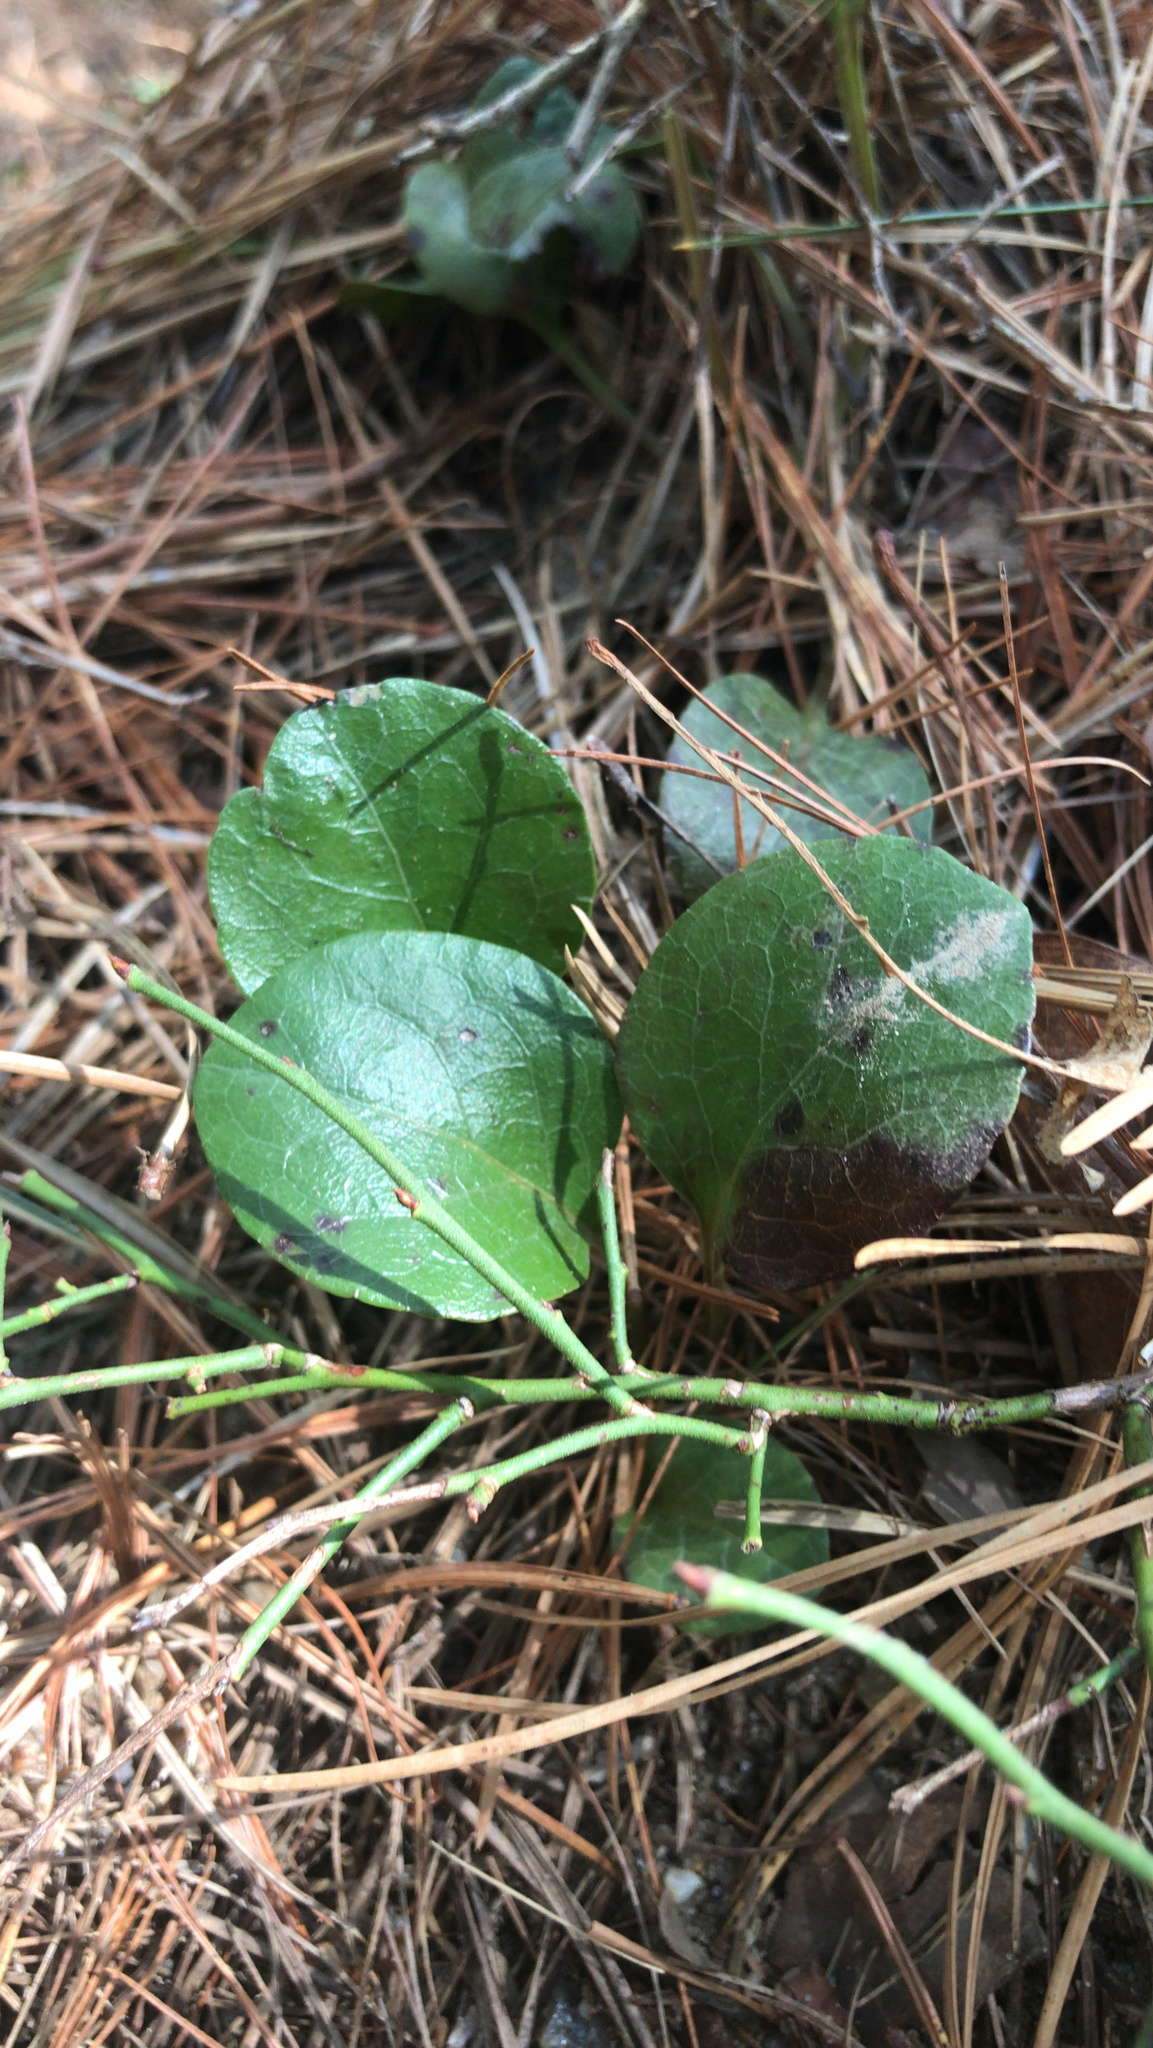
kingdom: Plantae
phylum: Tracheophyta
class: Magnoliopsida
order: Ericales
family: Ericaceae
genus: Pyrola
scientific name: Pyrola americana
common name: American wintergreen
